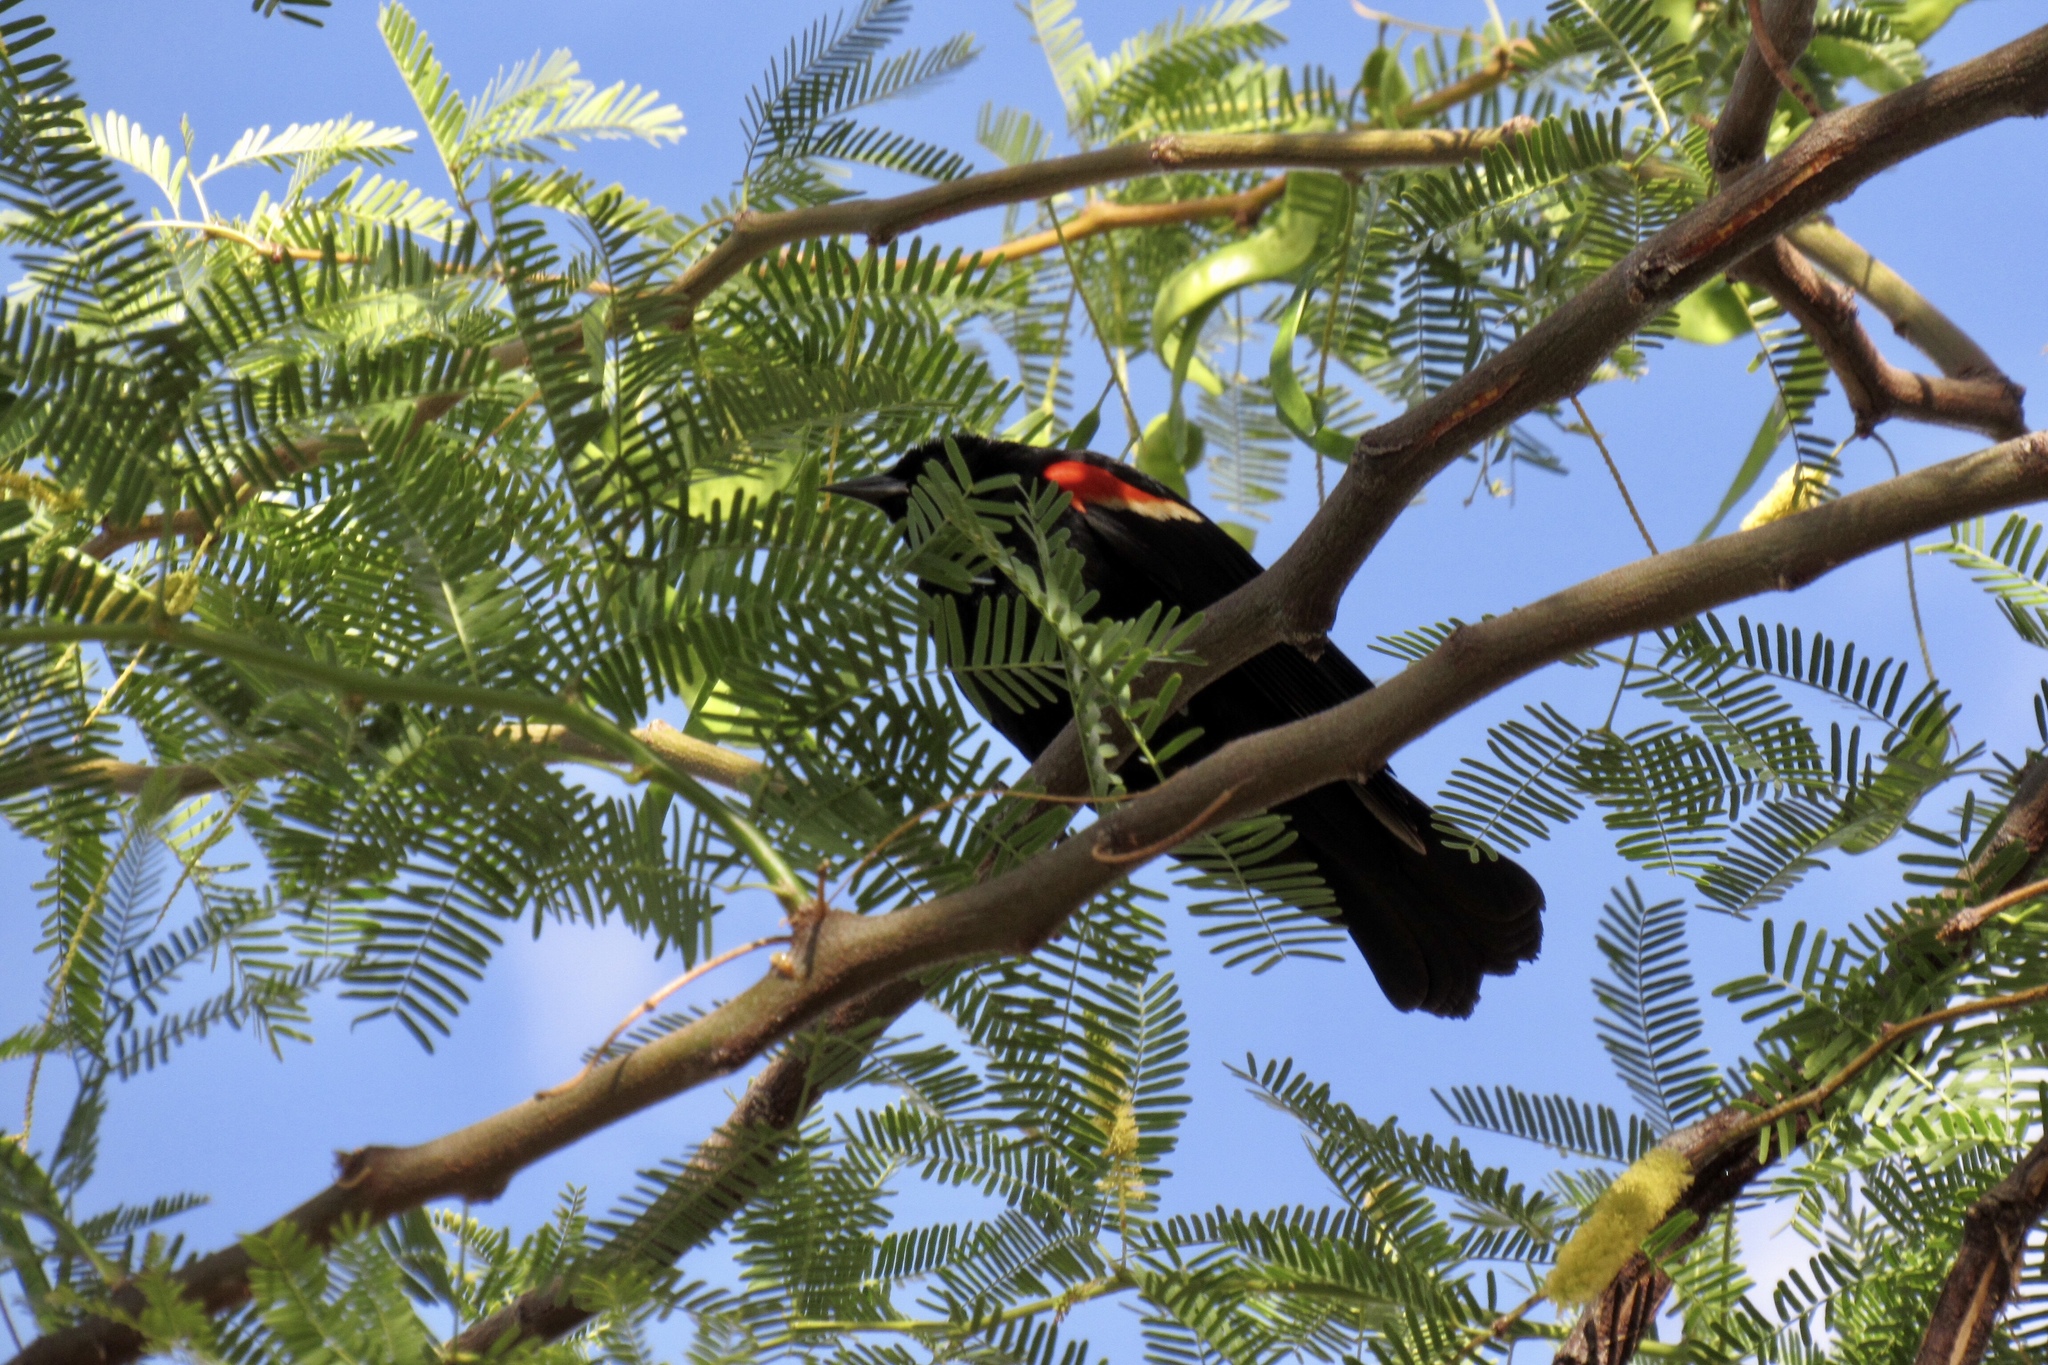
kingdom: Animalia
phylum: Chordata
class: Aves
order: Passeriformes
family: Icteridae
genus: Agelaius
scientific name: Agelaius phoeniceus
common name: Red-winged blackbird
